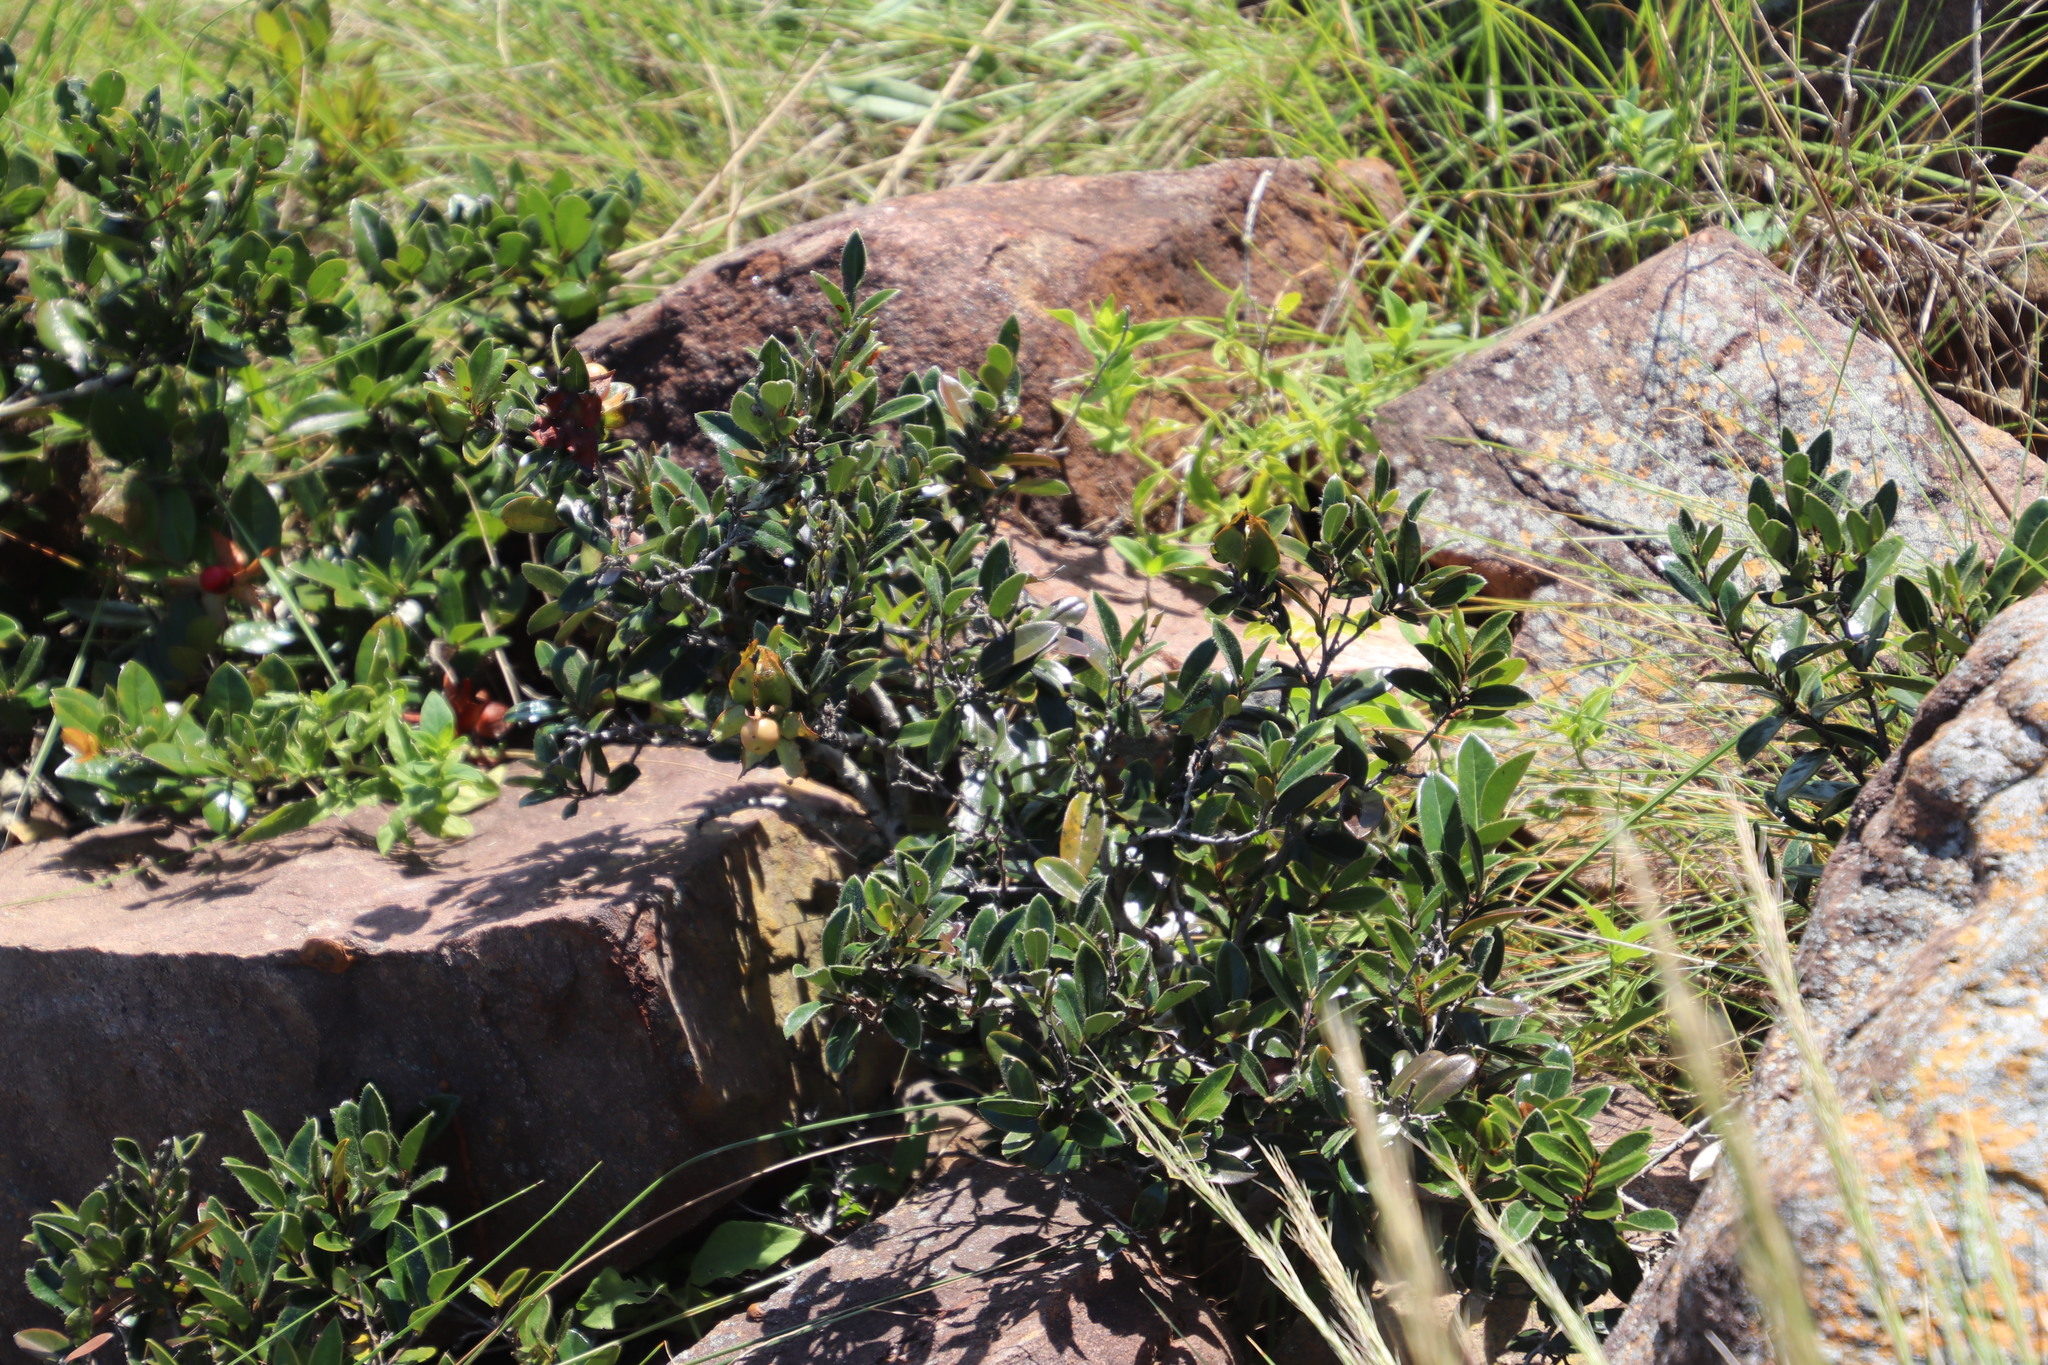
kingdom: Plantae
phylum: Tracheophyta
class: Magnoliopsida
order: Ericales
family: Ebenaceae
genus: Diospyros
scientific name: Diospyros scabrida
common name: Coastal bladder-nut
